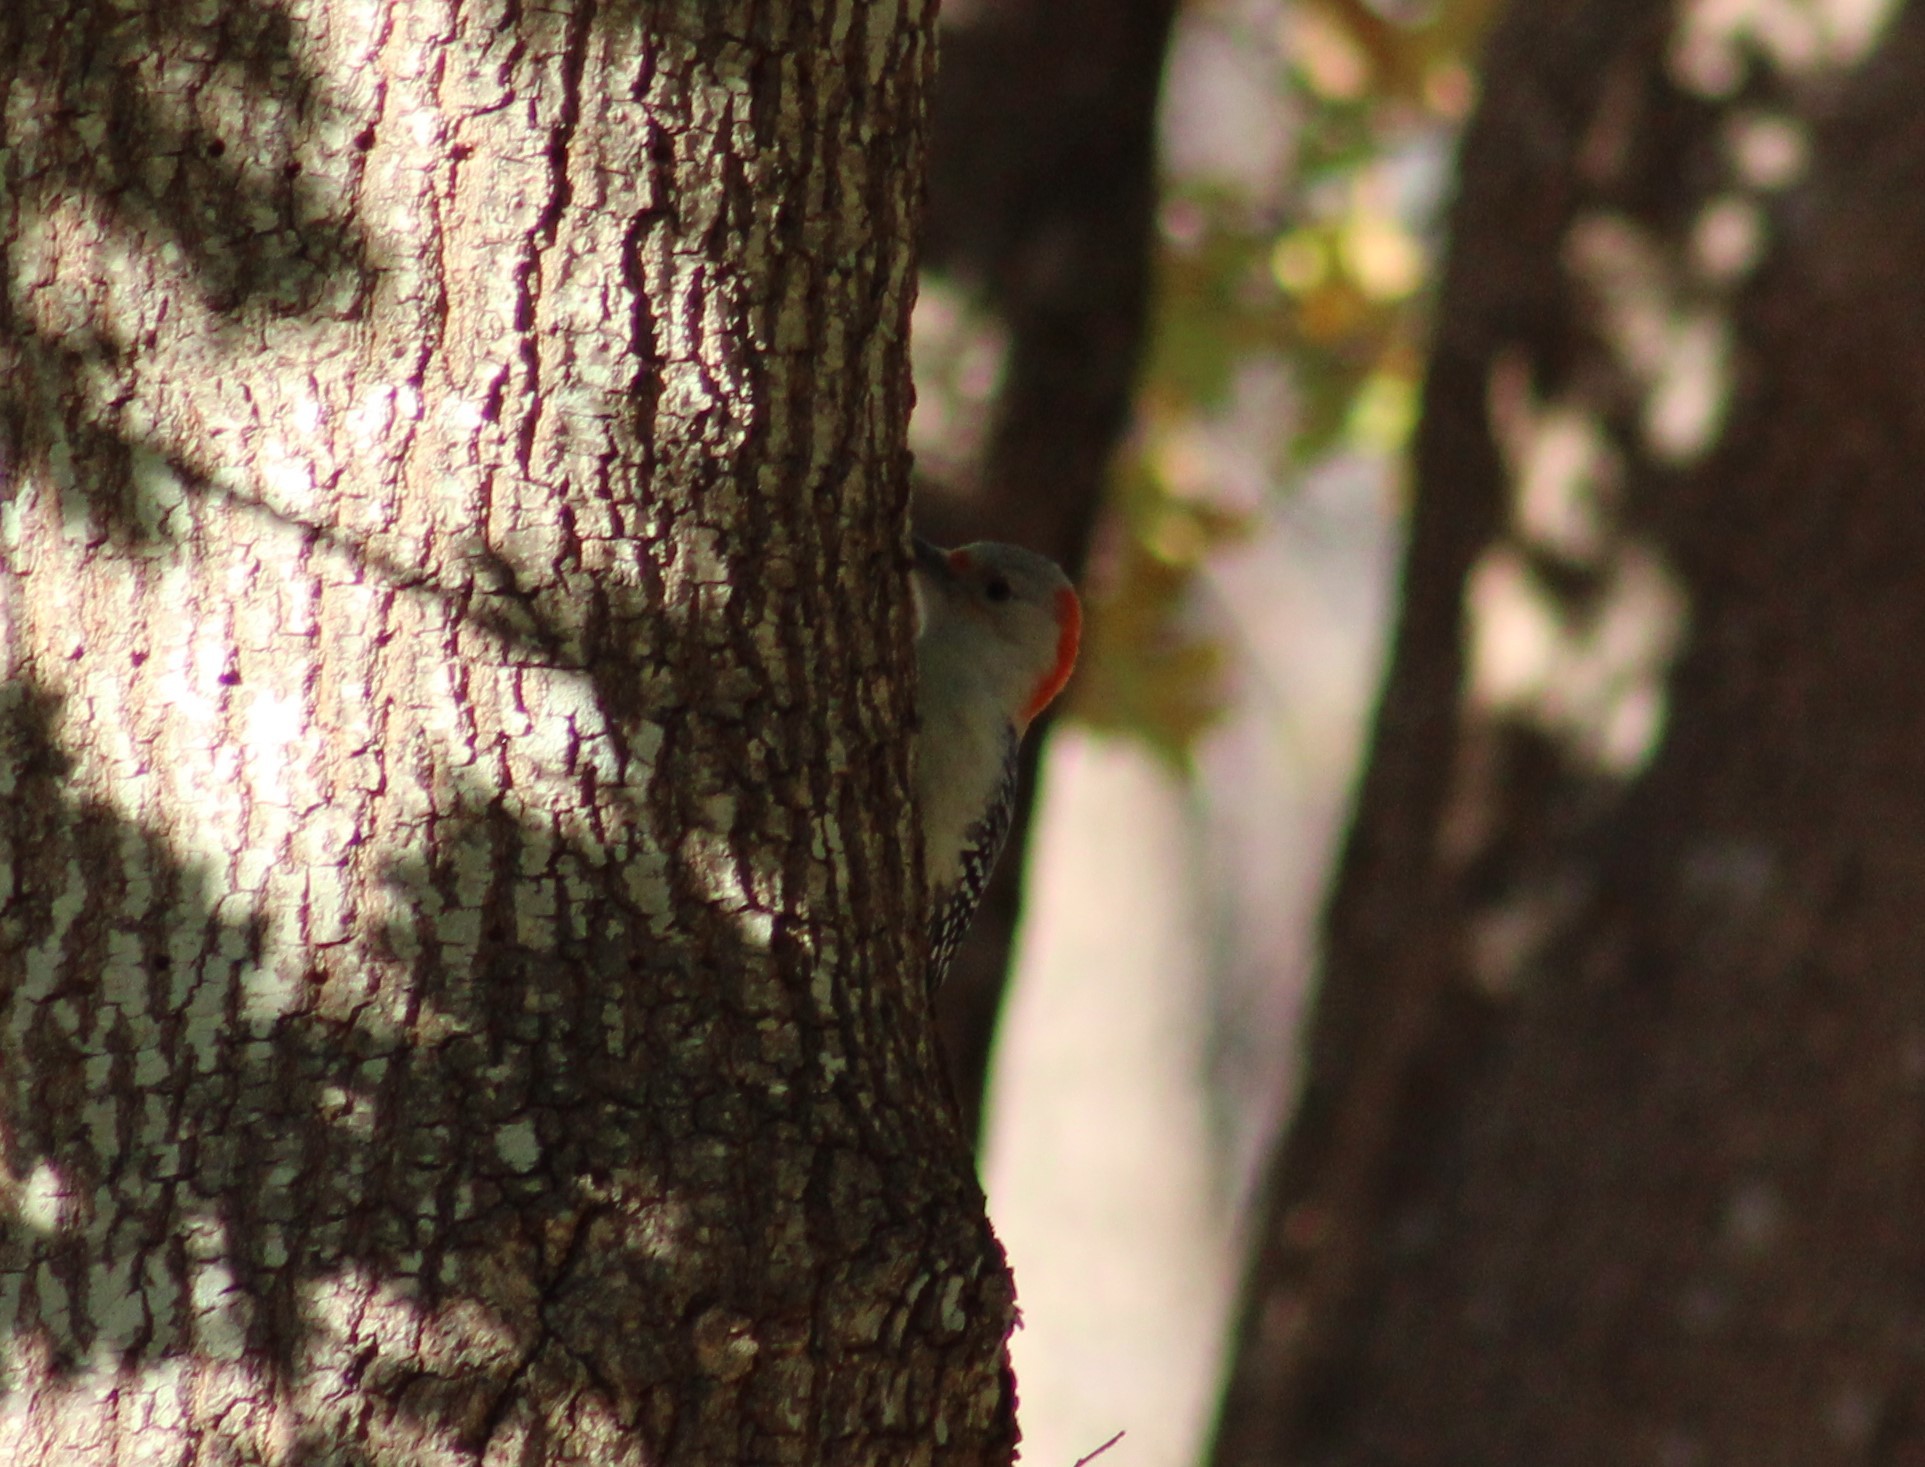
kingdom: Animalia
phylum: Chordata
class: Aves
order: Piciformes
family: Picidae
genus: Melanerpes
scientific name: Melanerpes carolinus
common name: Red-bellied woodpecker
